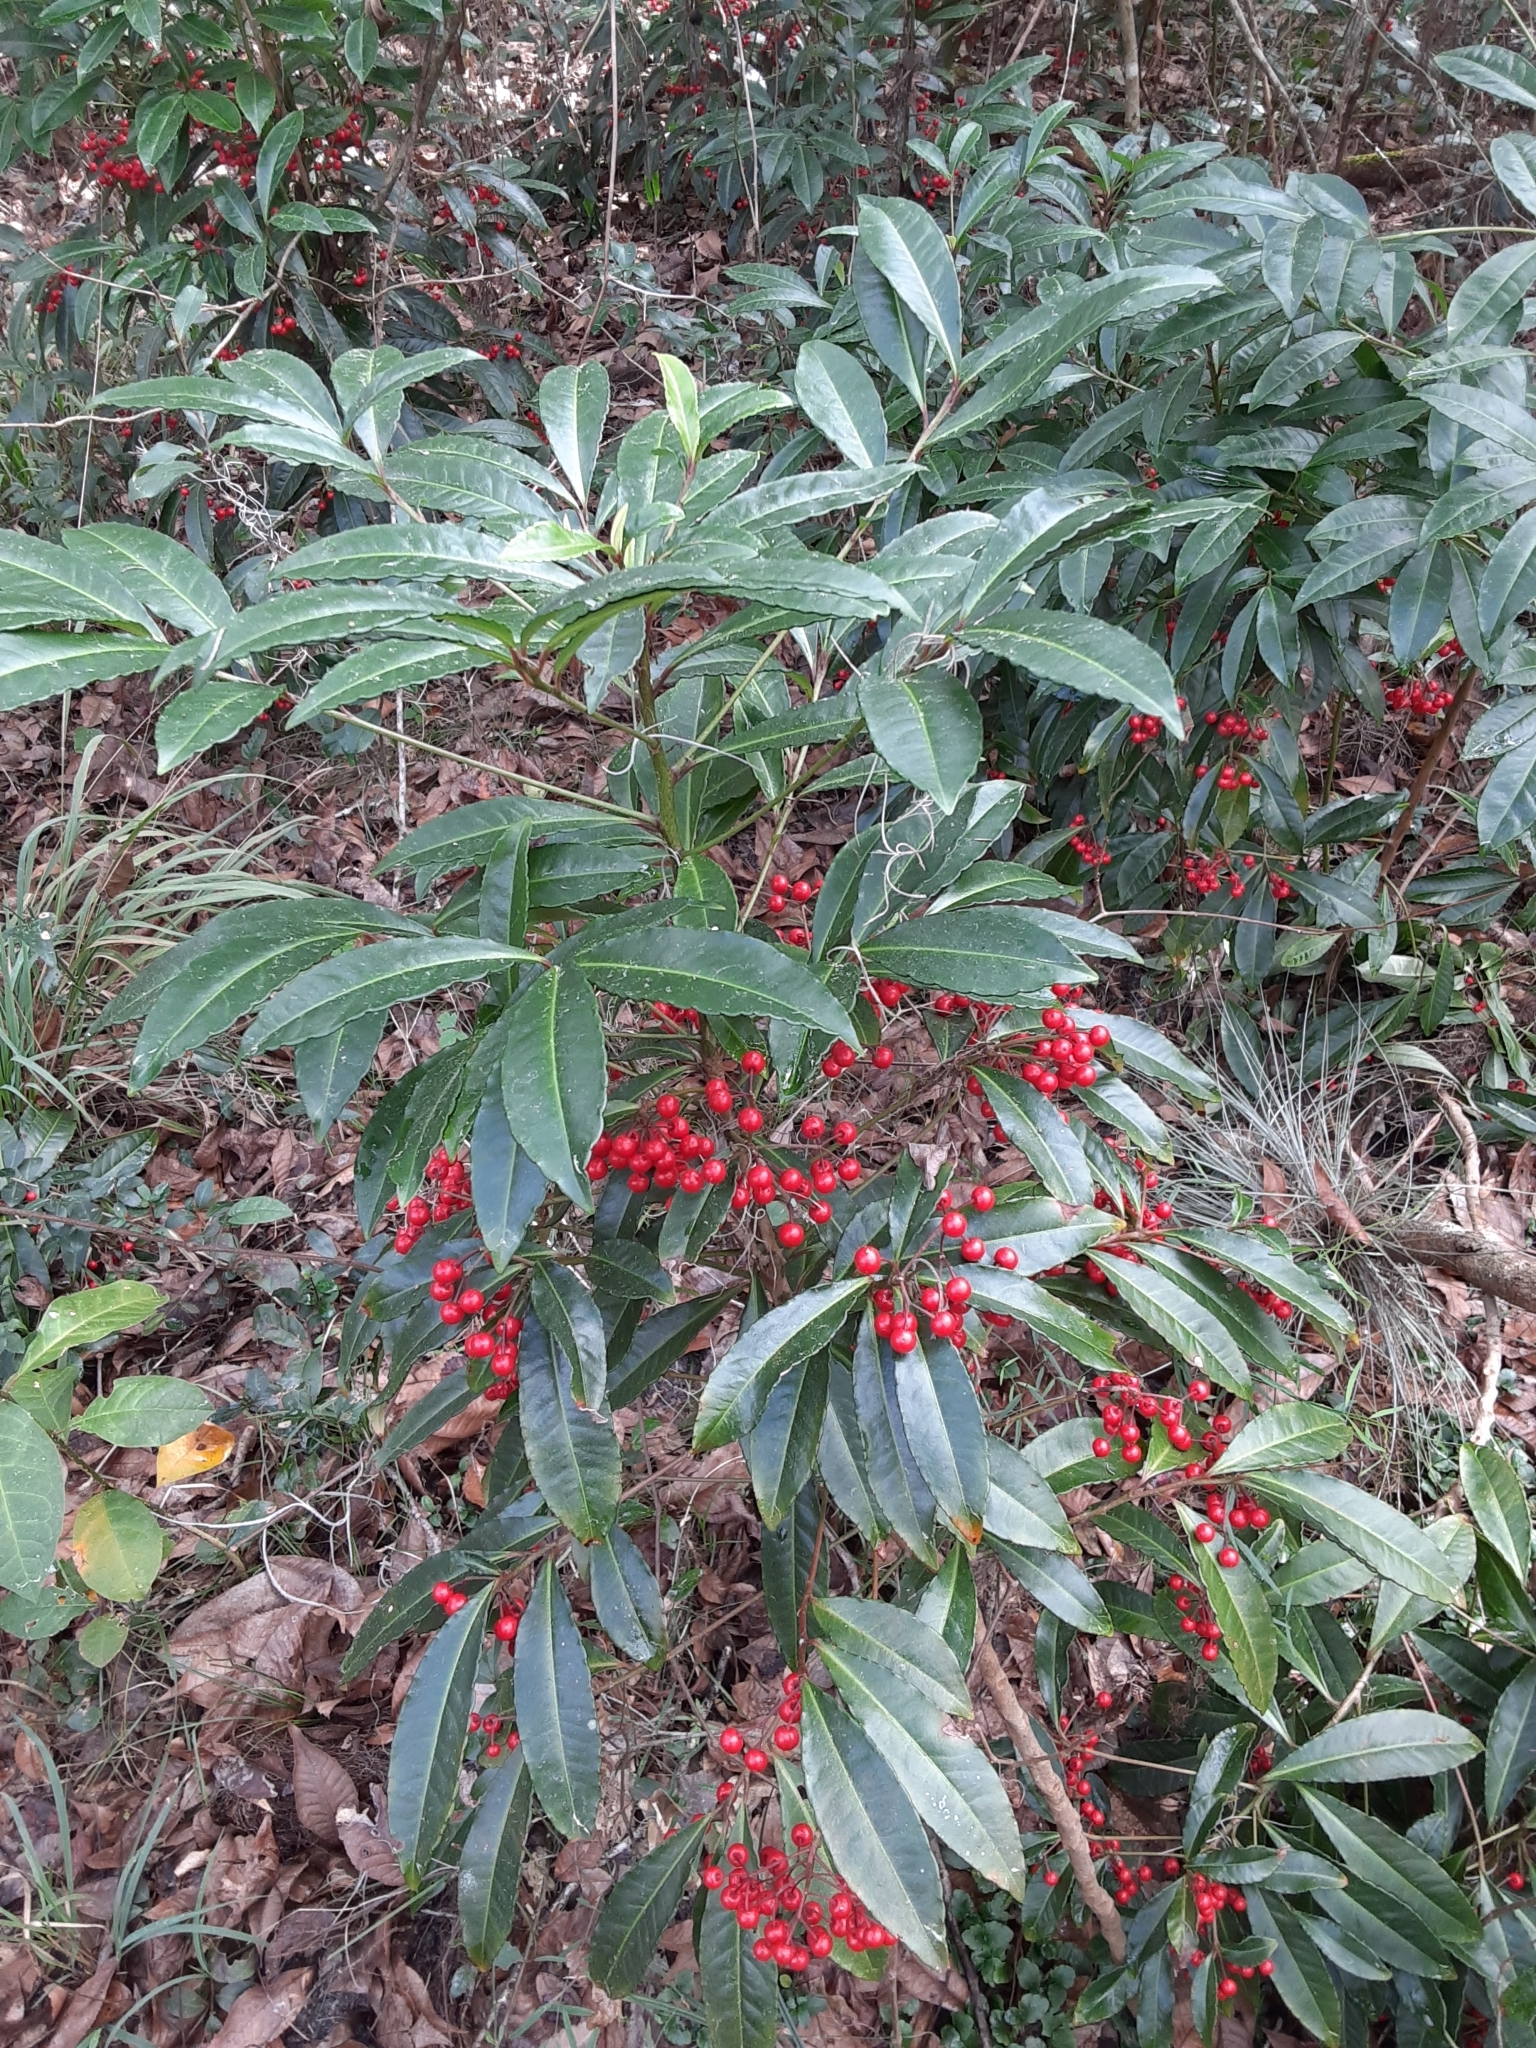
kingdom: Plantae
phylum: Tracheophyta
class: Magnoliopsida
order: Ericales
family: Primulaceae
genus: Ardisia
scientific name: Ardisia crenata
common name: Hen's eyes
